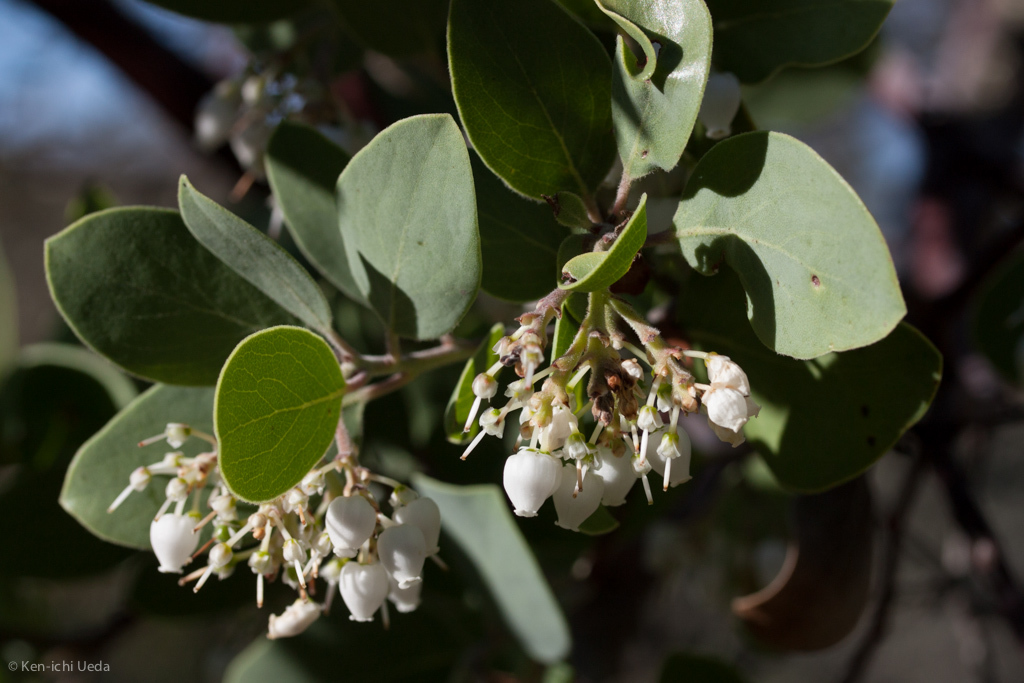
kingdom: Plantae
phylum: Tracheophyta
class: Magnoliopsida
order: Ericales
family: Ericaceae
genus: Arctostaphylos
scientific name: Arctostaphylos manzanita
